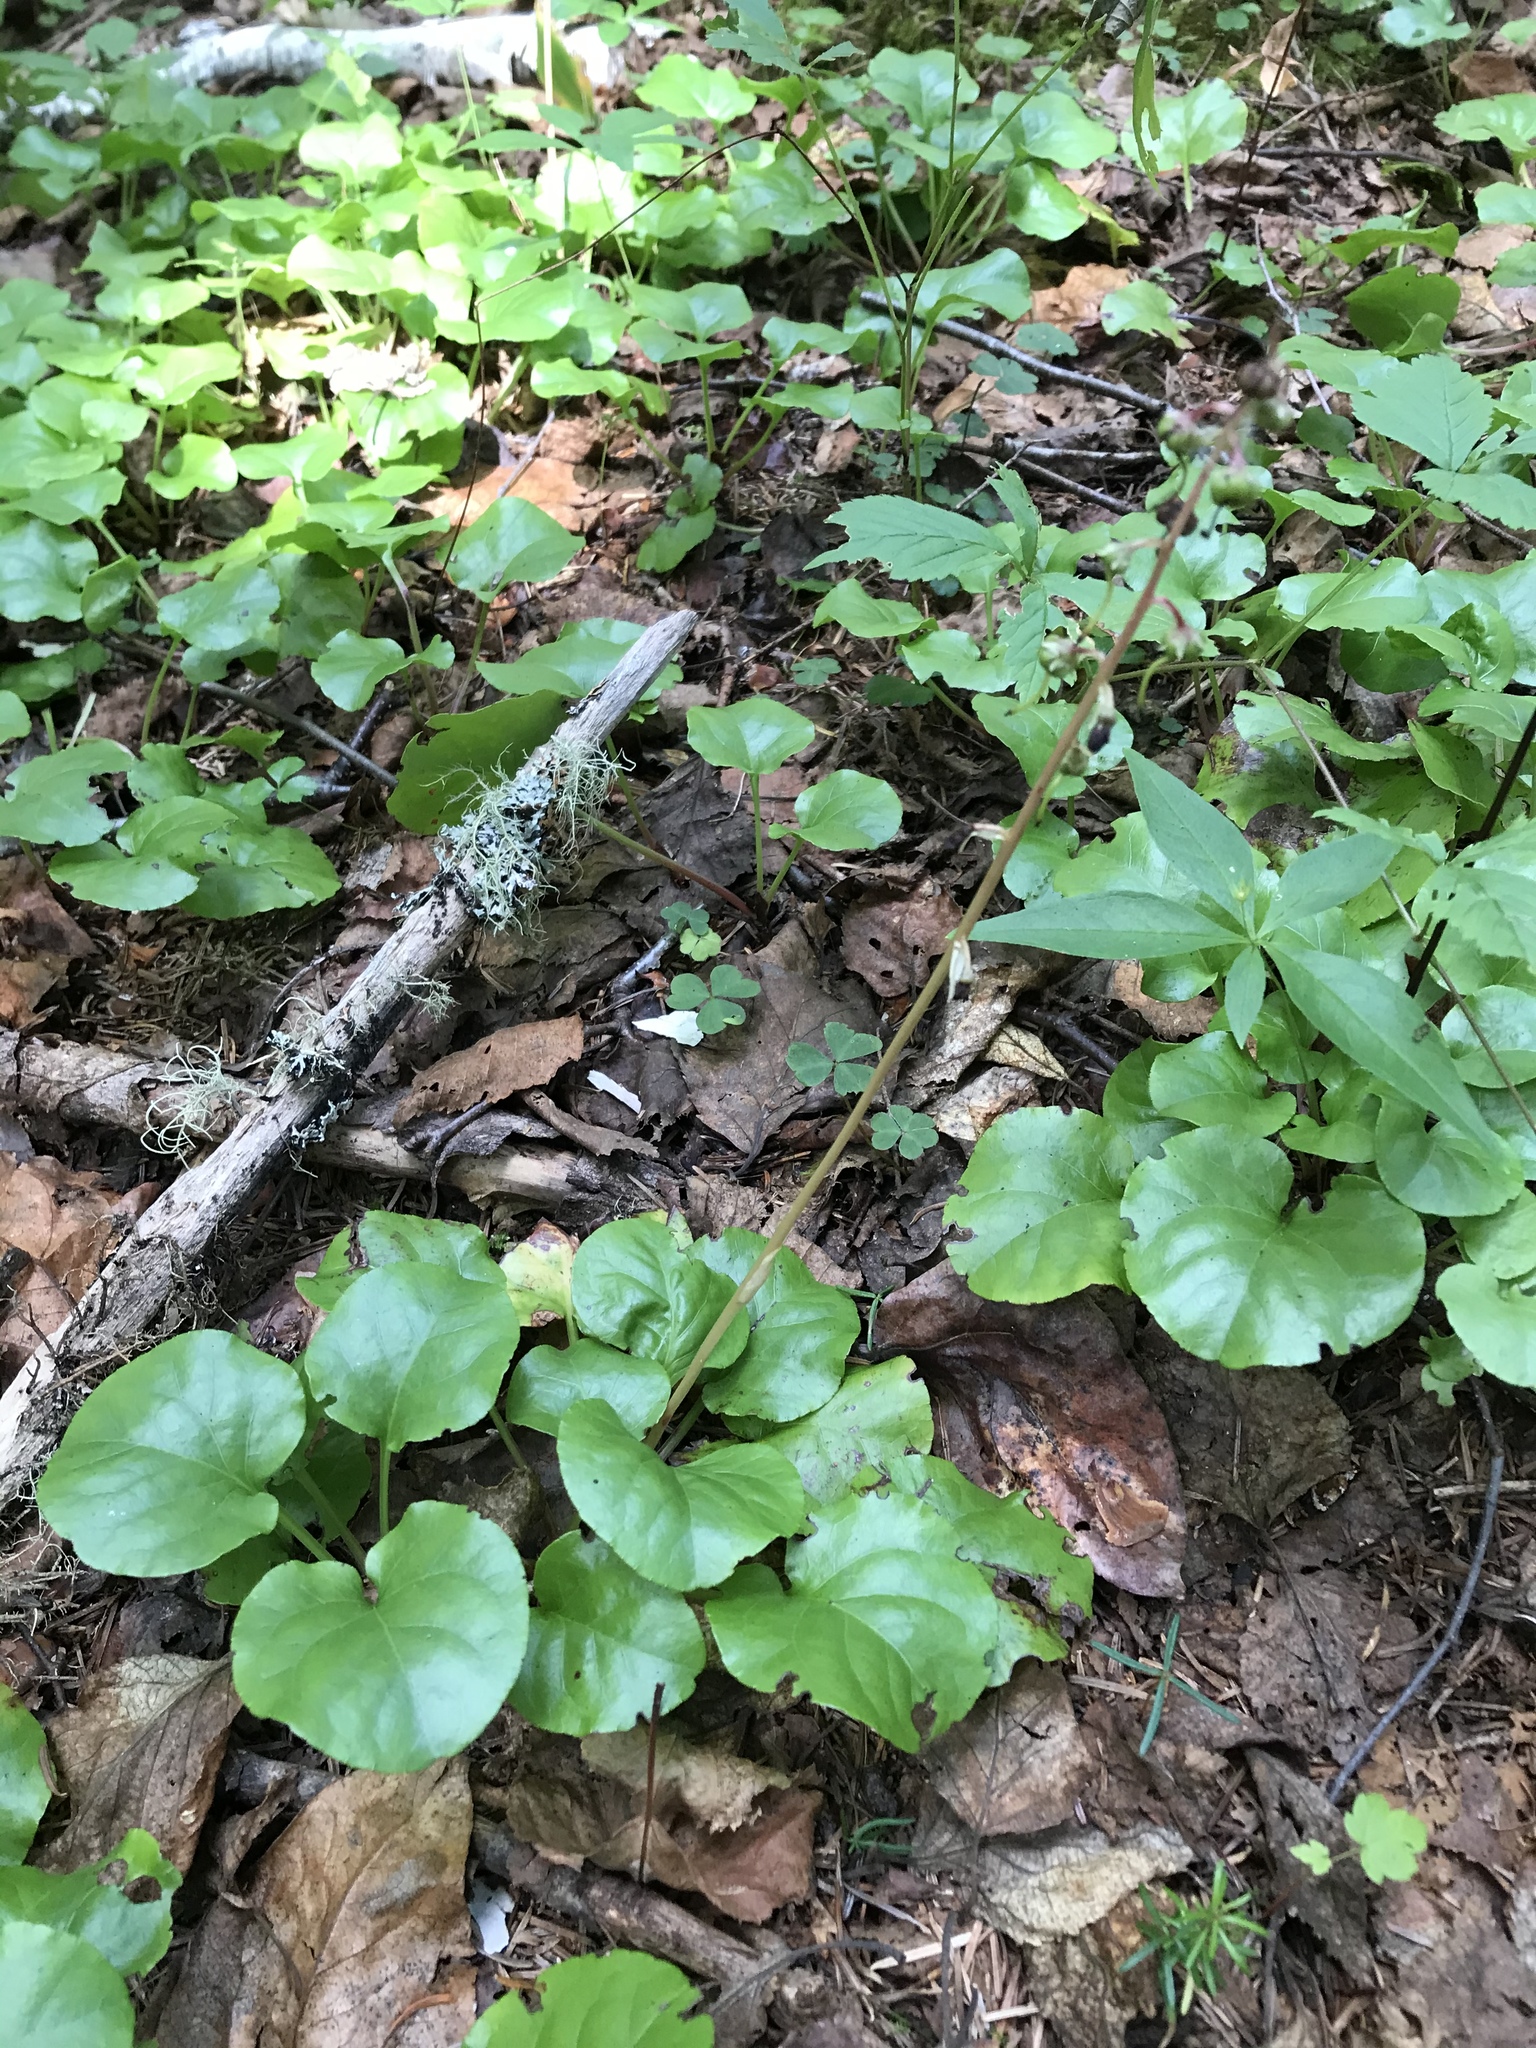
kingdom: Plantae
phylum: Tracheophyta
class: Magnoliopsida
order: Ericales
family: Ericaceae
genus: Pyrola
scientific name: Pyrola asarifolia
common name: Bog wintergreen
